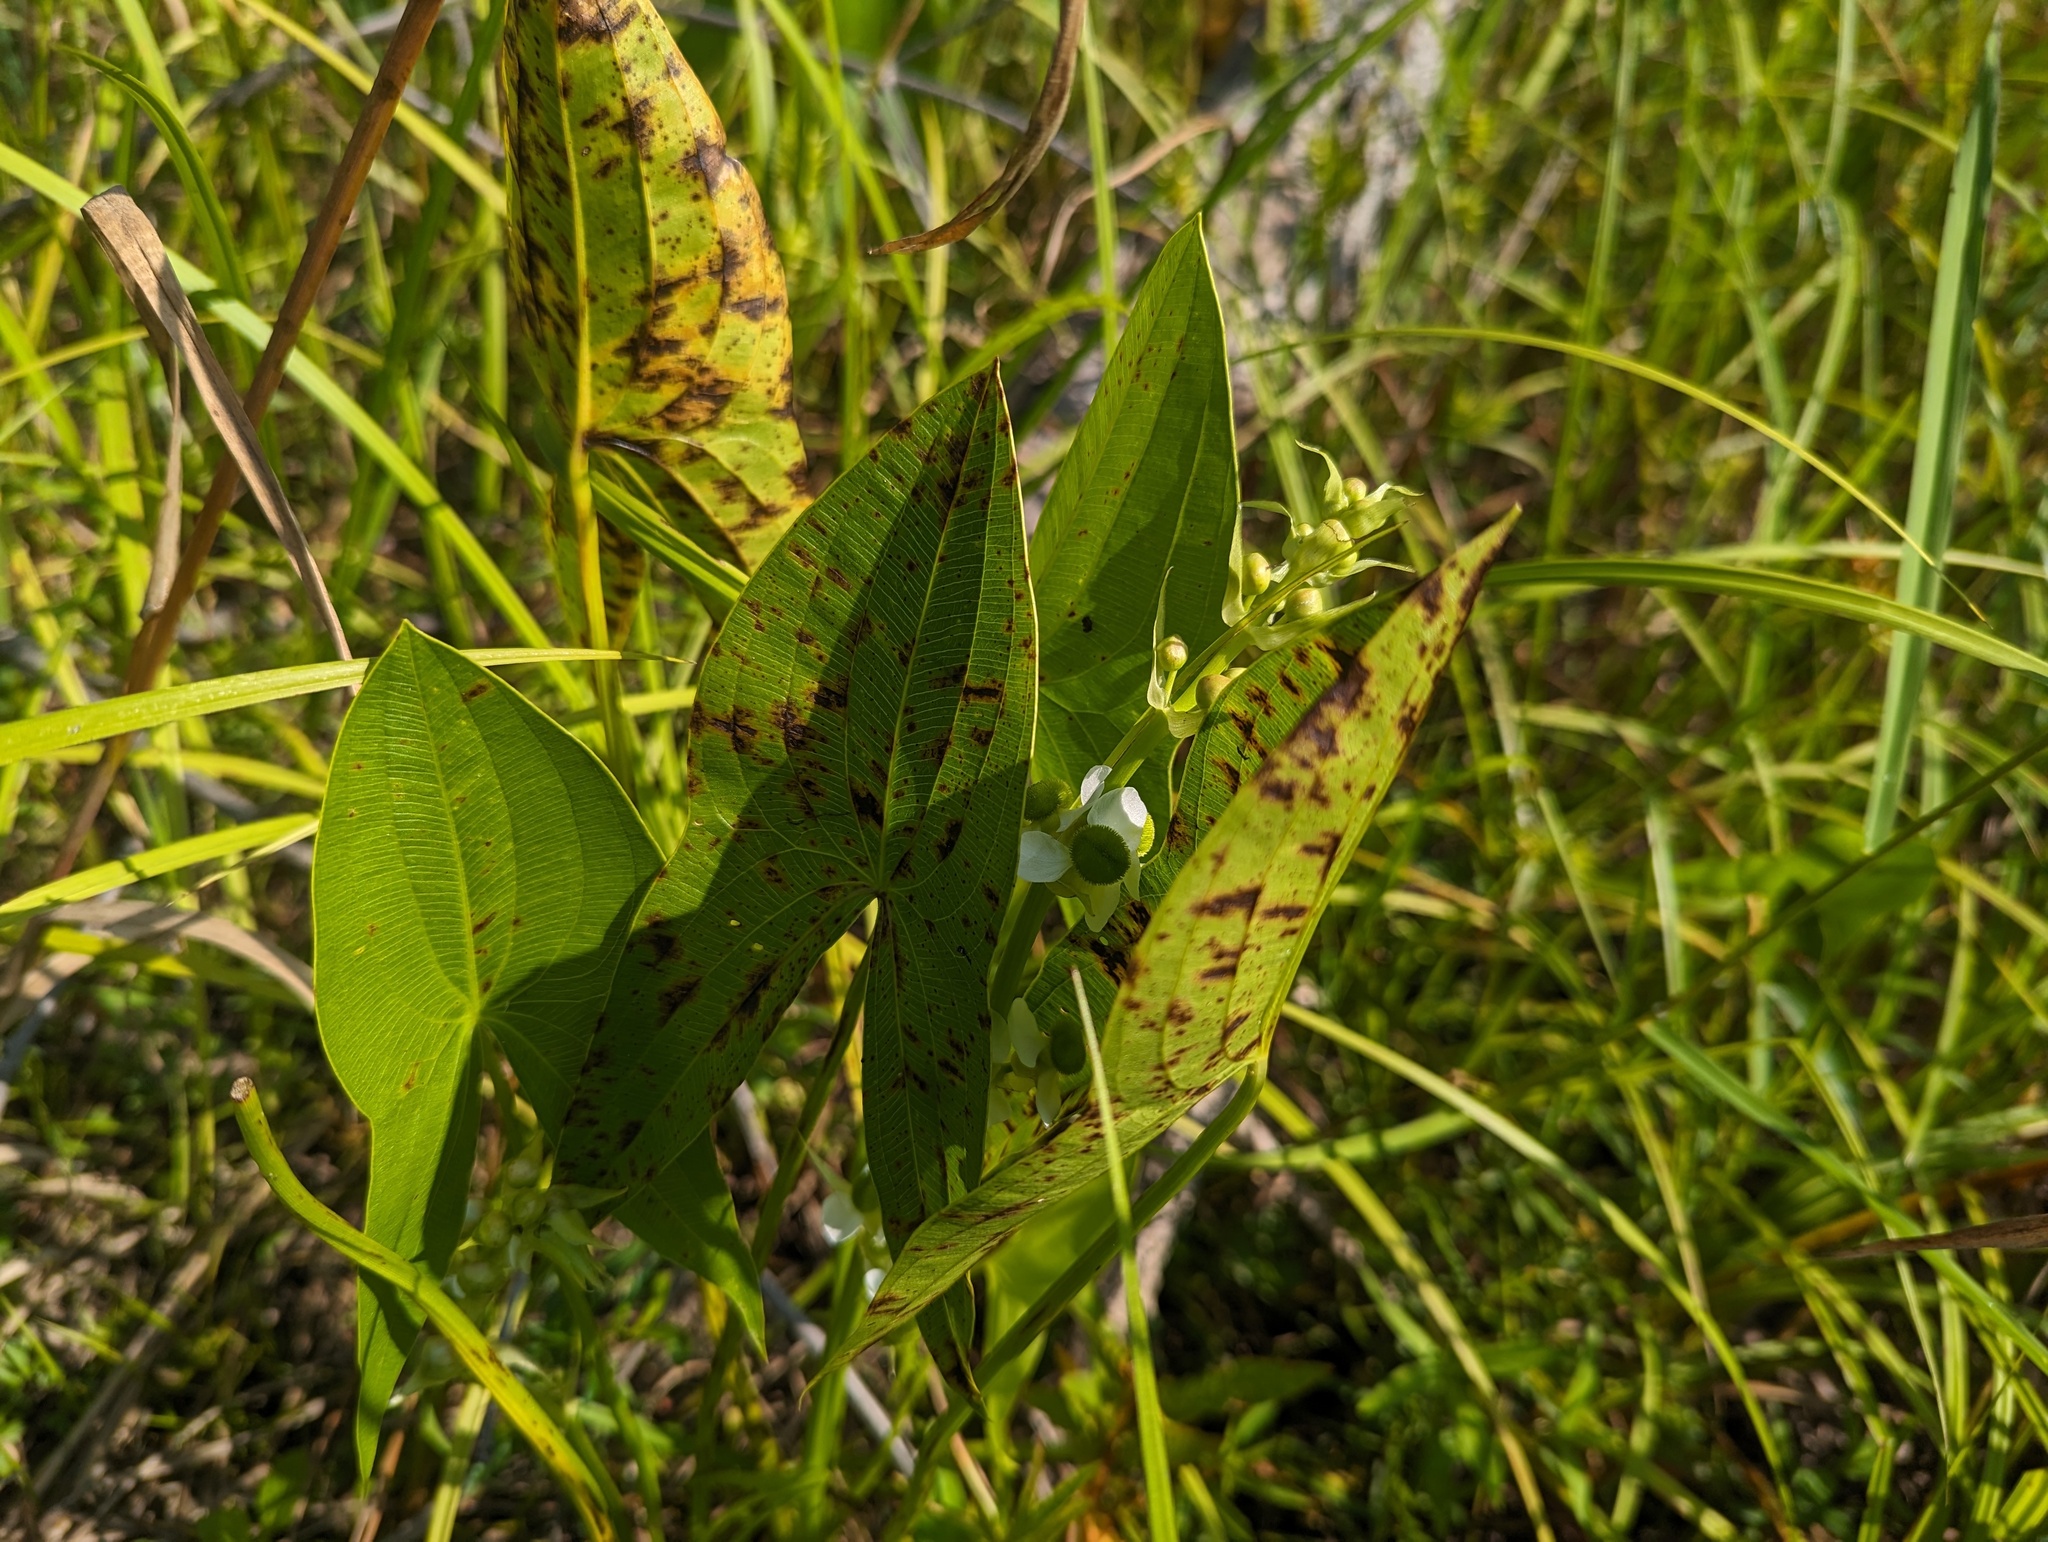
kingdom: Plantae
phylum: Tracheophyta
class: Liliopsida
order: Alismatales
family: Alismataceae
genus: Sagittaria
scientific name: Sagittaria brevirostra
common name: Midwestern arrowhead
